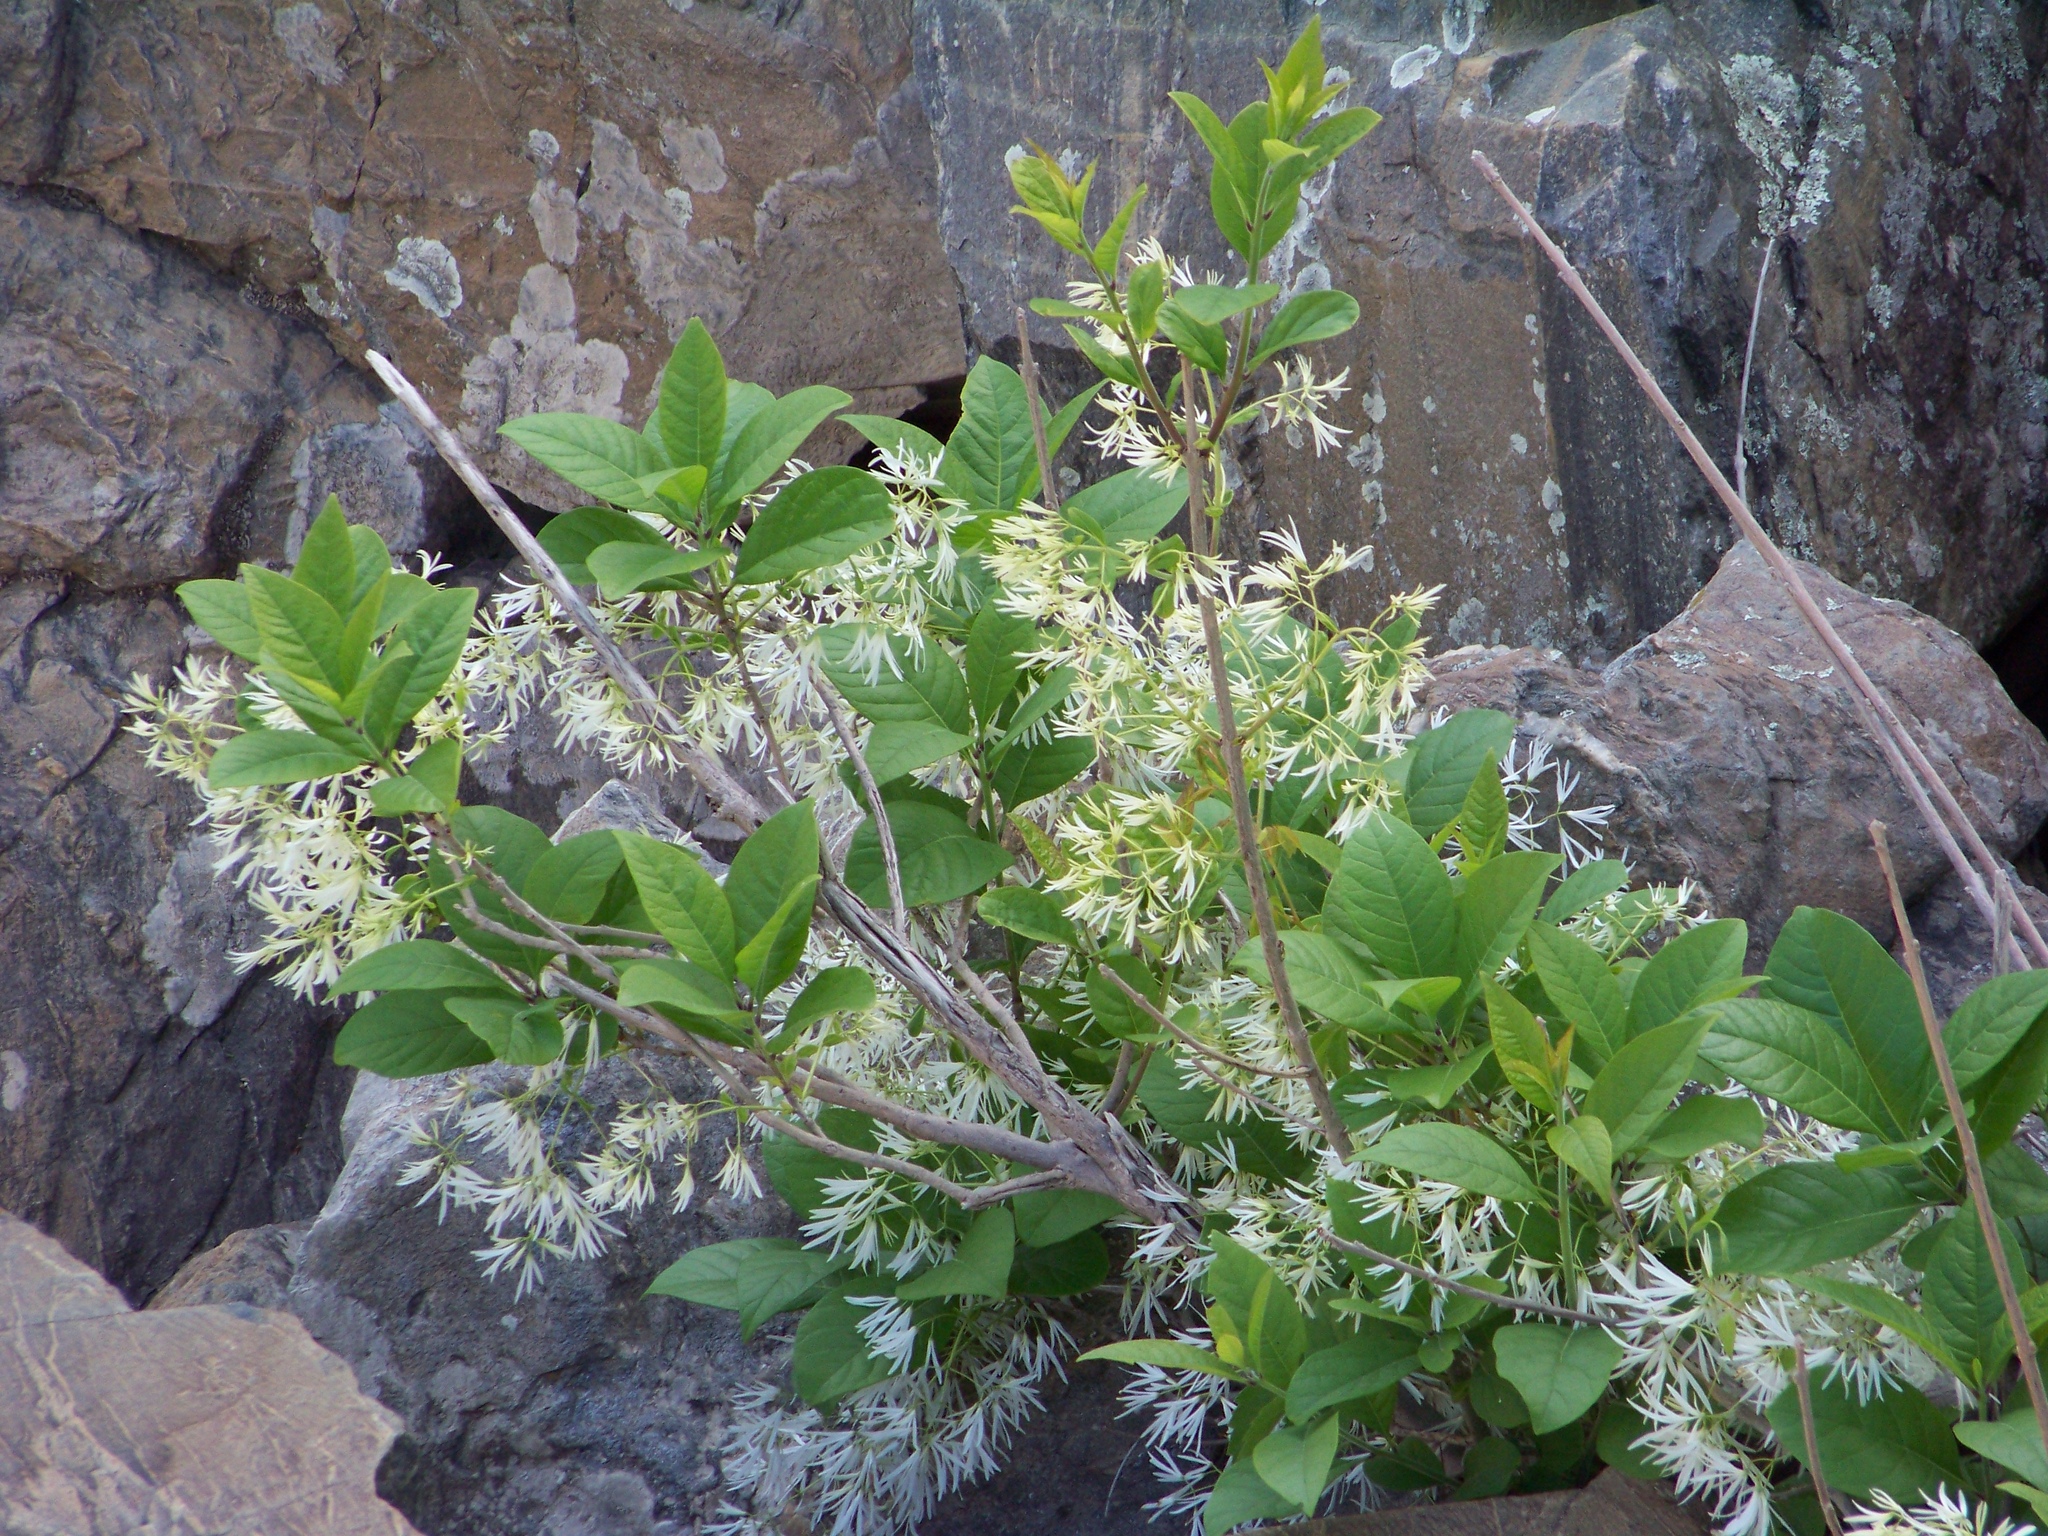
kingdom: Plantae
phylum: Tracheophyta
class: Magnoliopsida
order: Lamiales
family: Oleaceae
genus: Chionanthus
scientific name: Chionanthus virginicus
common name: American fringetree
